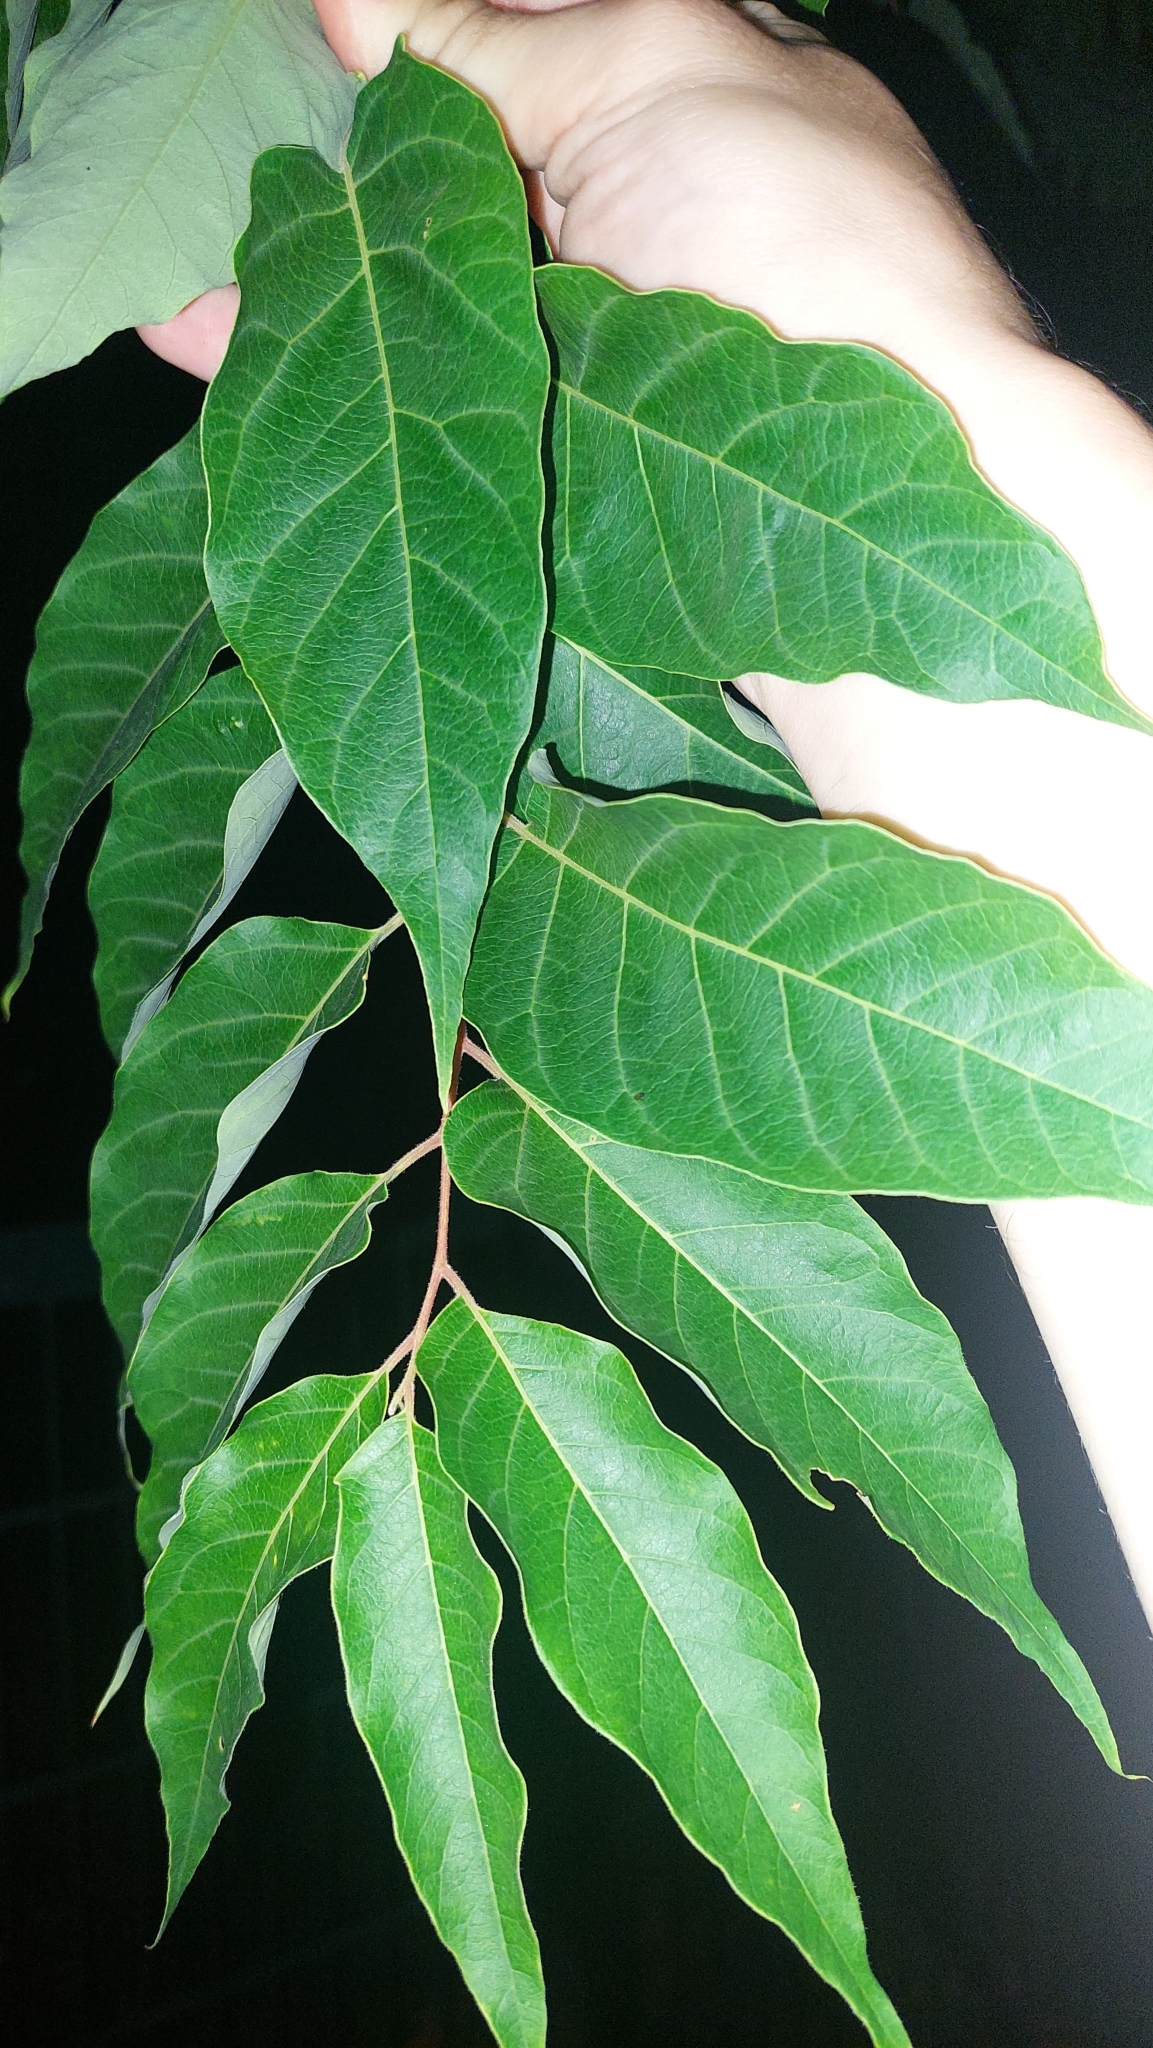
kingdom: Plantae
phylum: Tracheophyta
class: Magnoliopsida
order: Sapindales
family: Simaroubaceae
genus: Ailanthus
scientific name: Ailanthus altissima
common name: Tree-of-heaven
